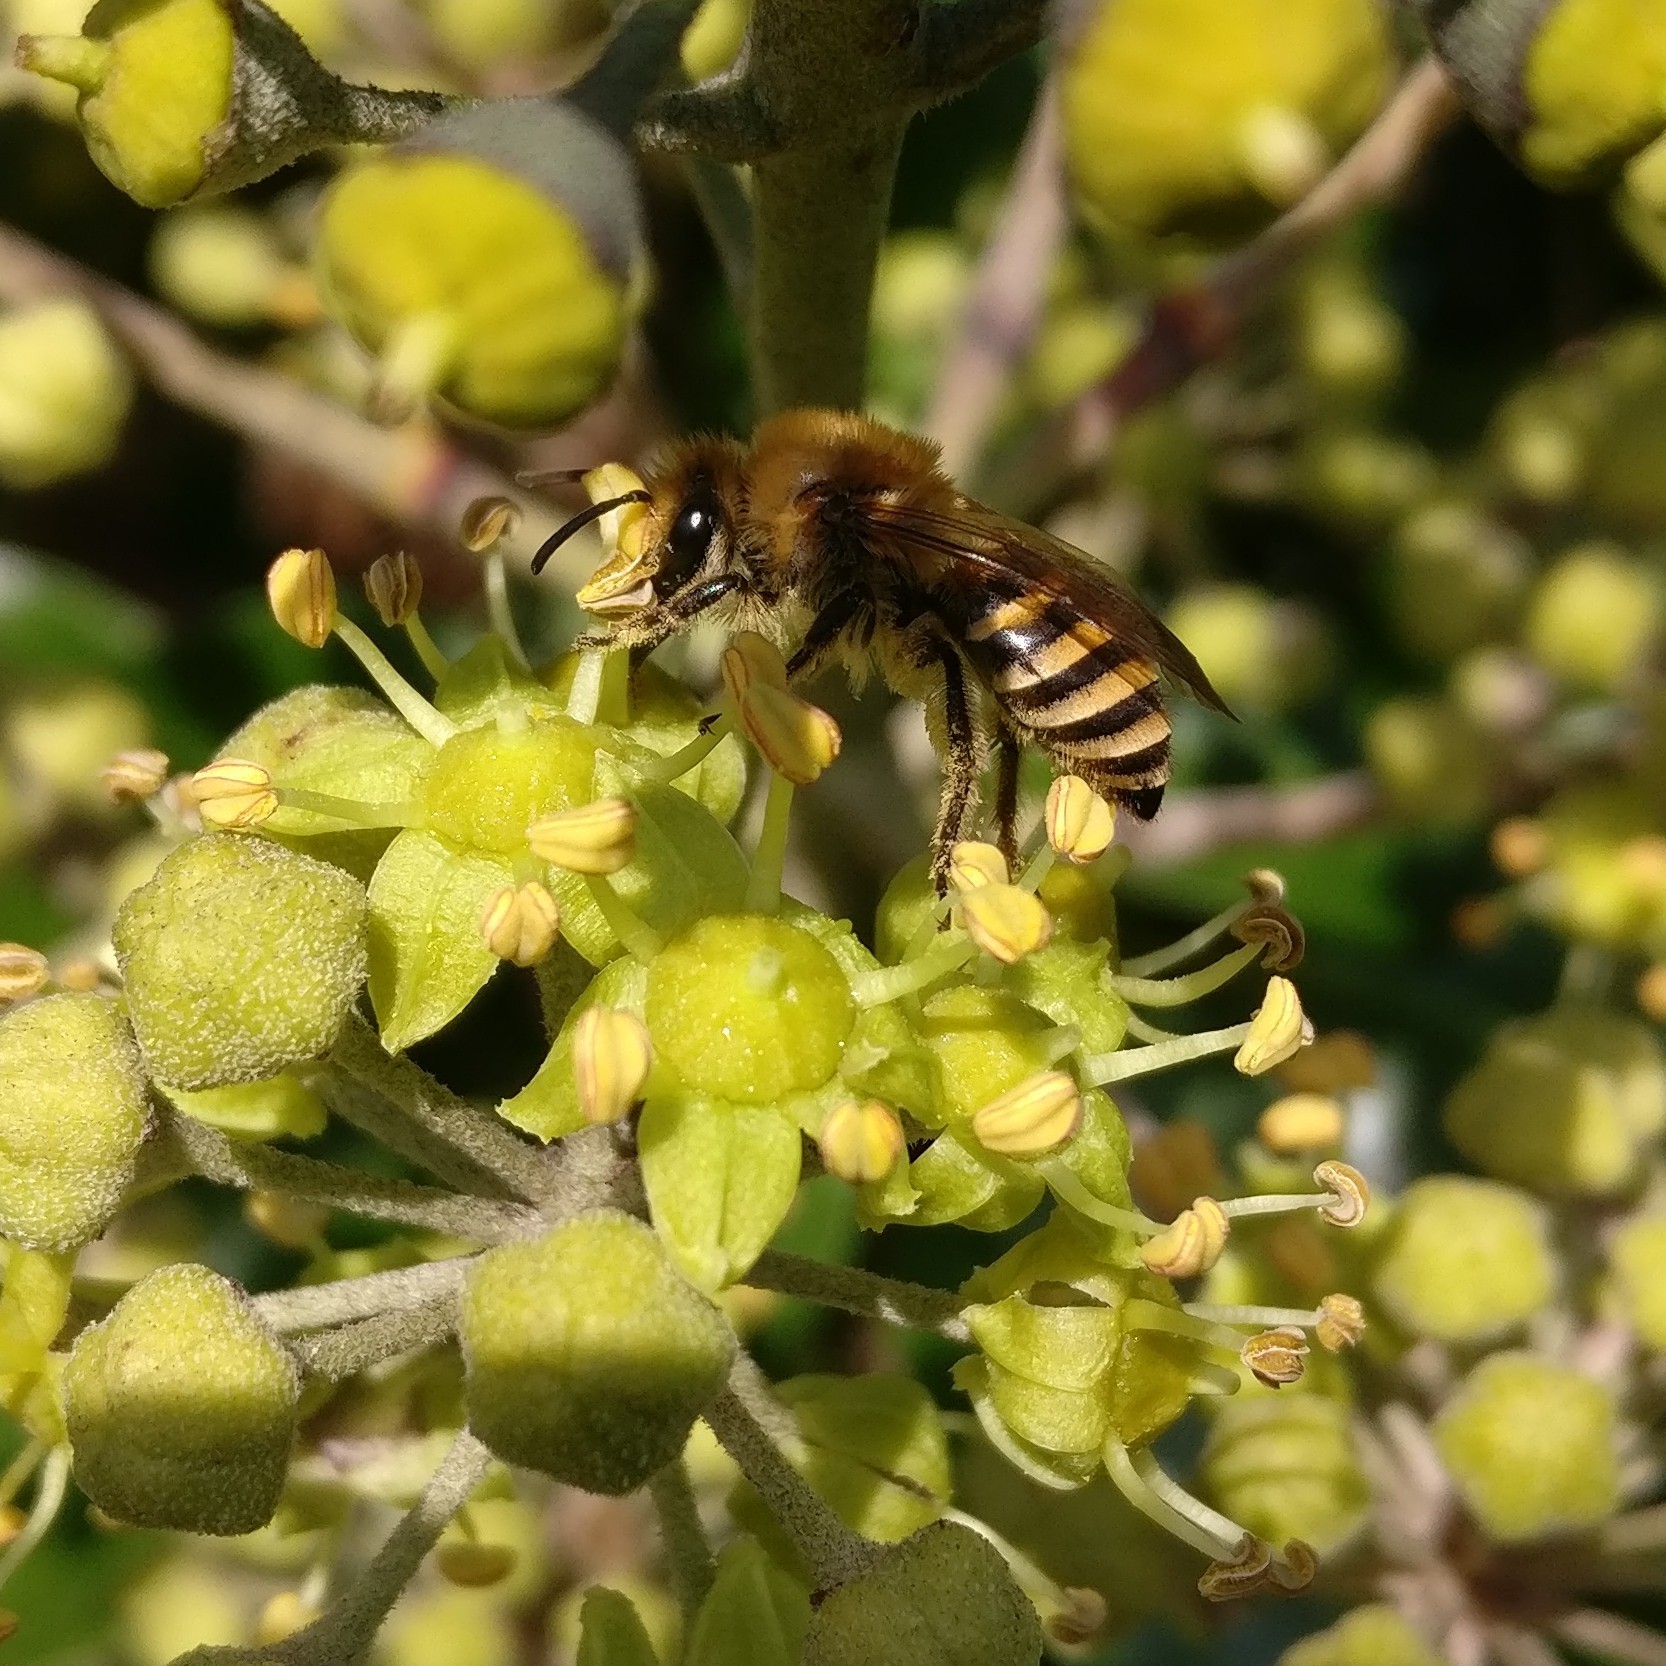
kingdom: Animalia
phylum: Arthropoda
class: Insecta
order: Hymenoptera
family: Colletidae
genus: Colletes
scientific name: Colletes hederae
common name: Ivy bee
